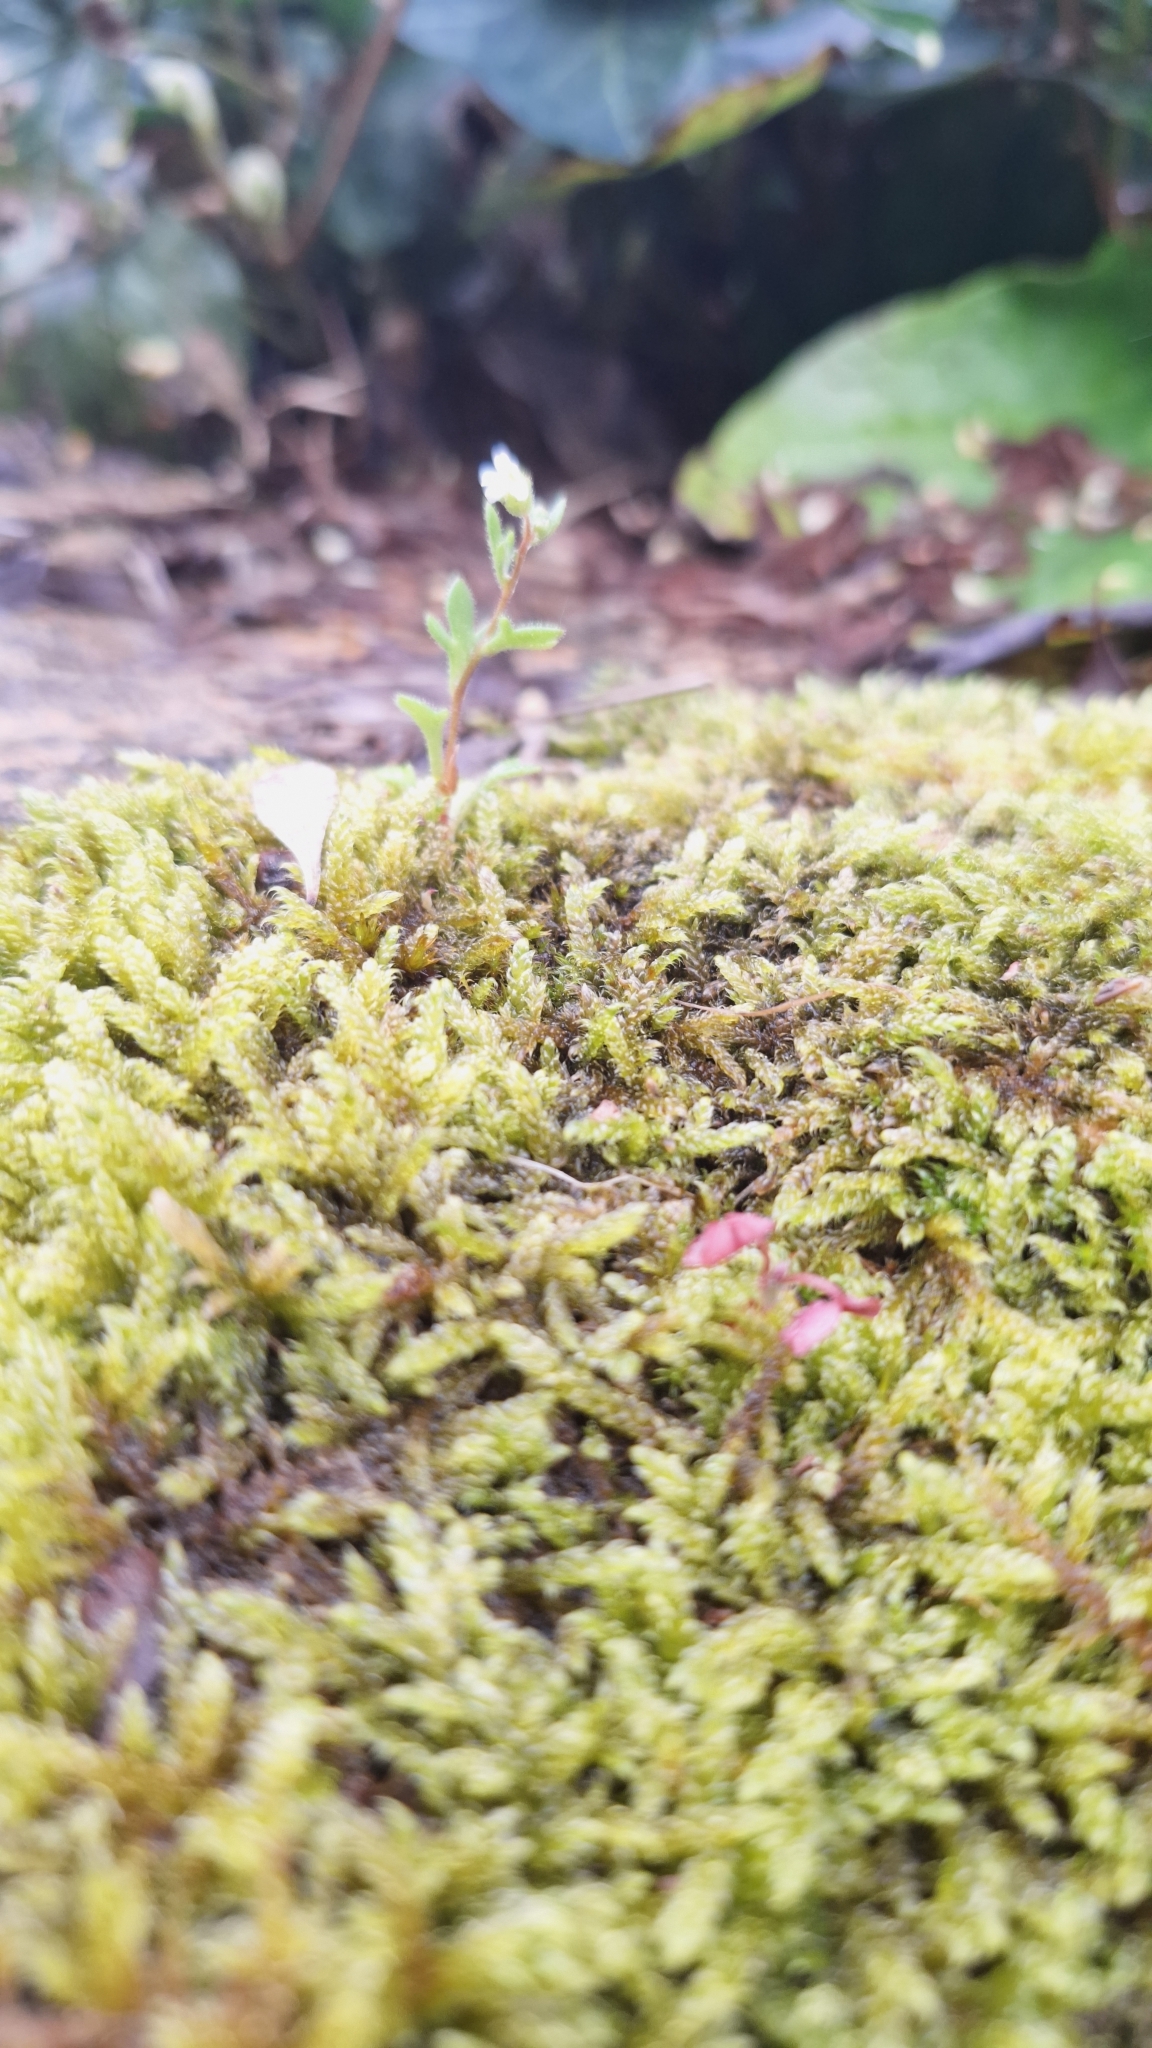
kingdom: Plantae
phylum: Bryophyta
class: Bryopsida
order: Hypnales
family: Hypnaceae
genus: Hypnum
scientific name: Hypnum cupressiforme
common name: Cypress-leaved plait-moss
